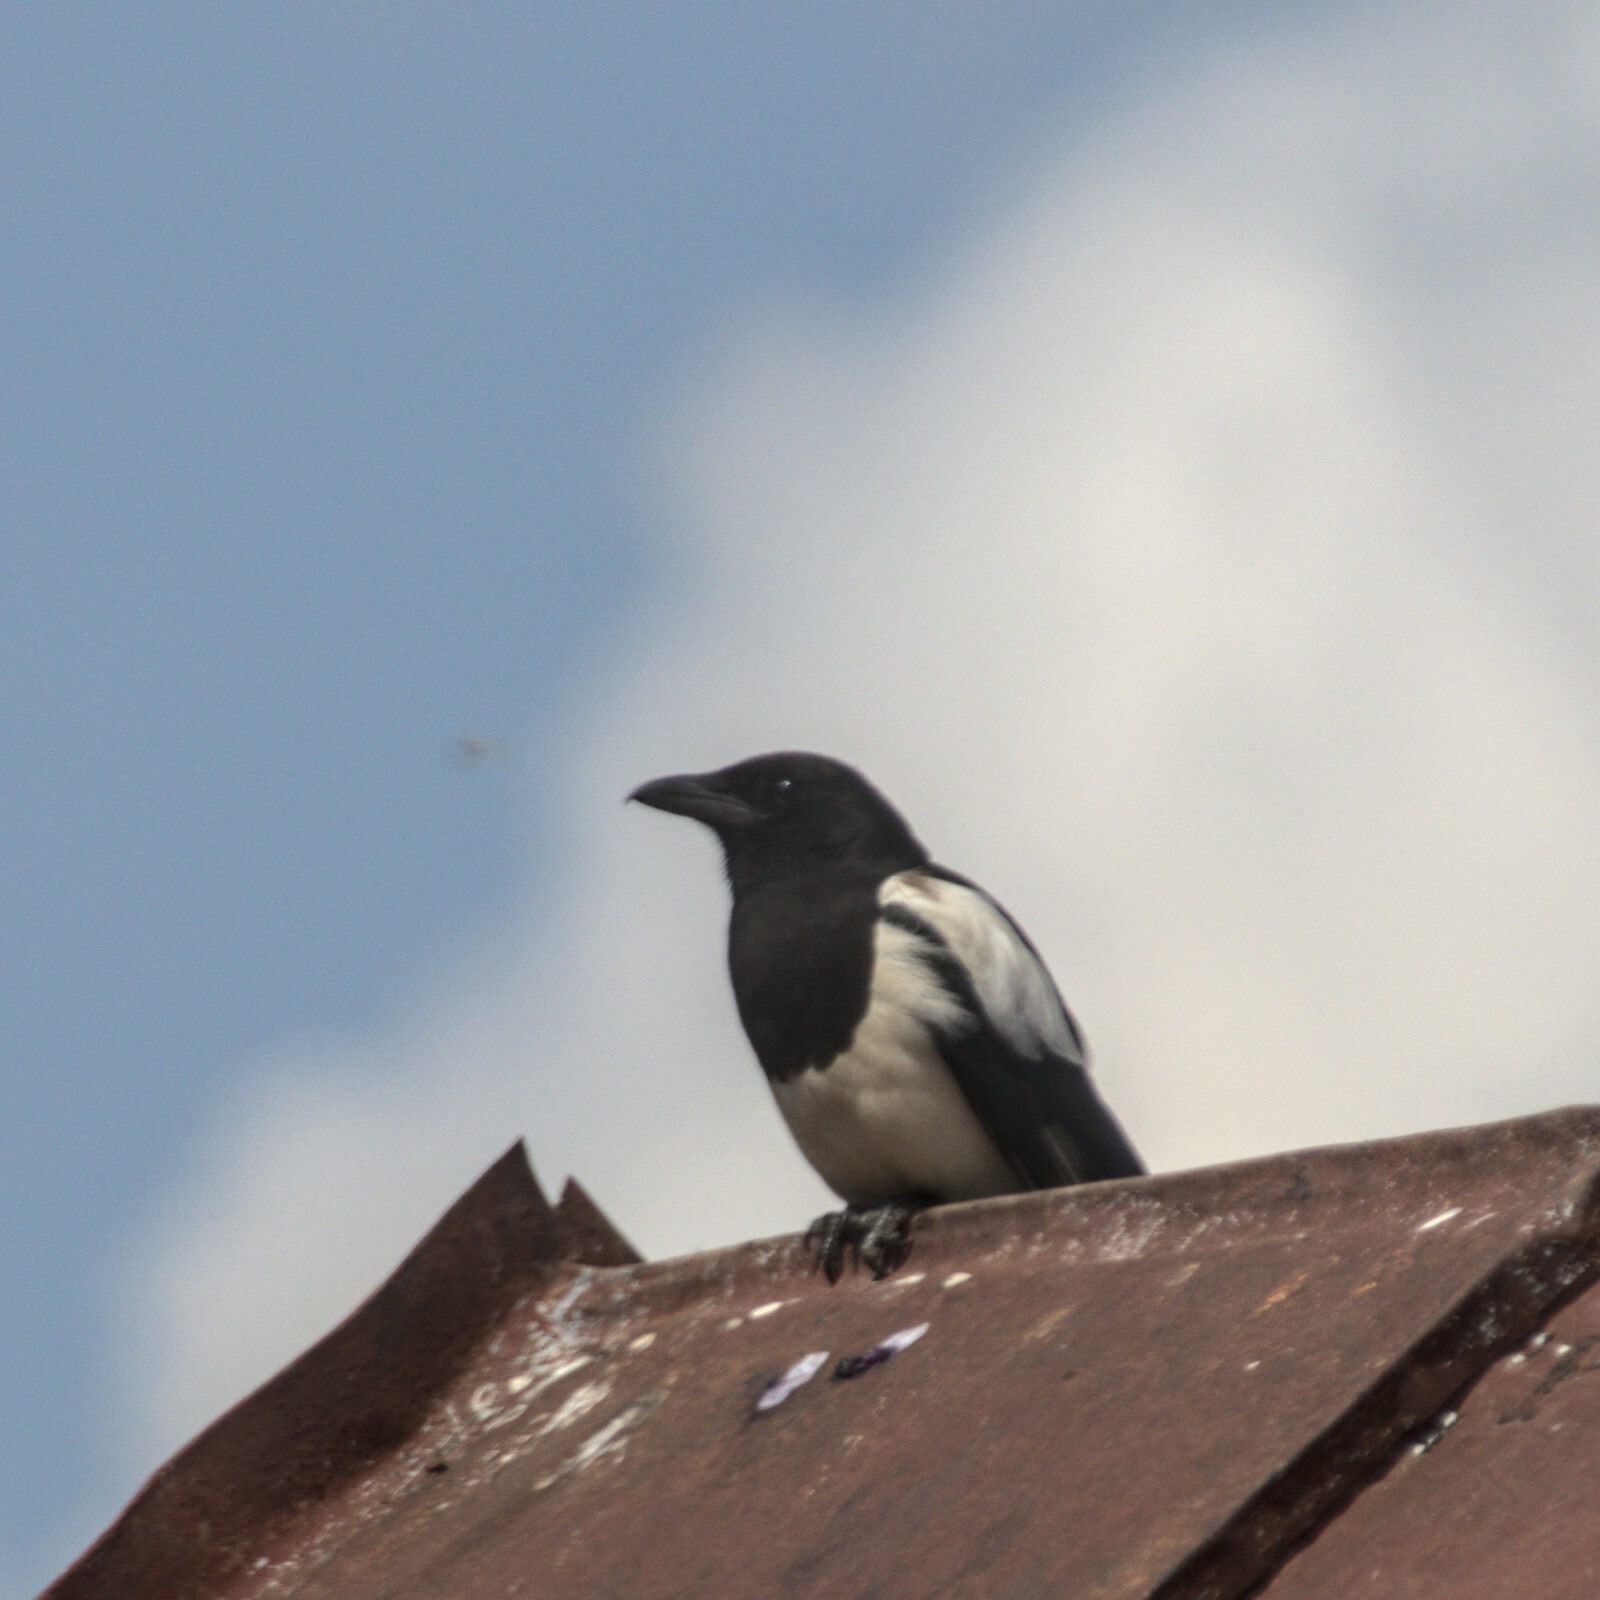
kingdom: Animalia
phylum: Chordata
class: Aves
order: Passeriformes
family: Corvidae
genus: Pica
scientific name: Pica pica
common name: Eurasian magpie
